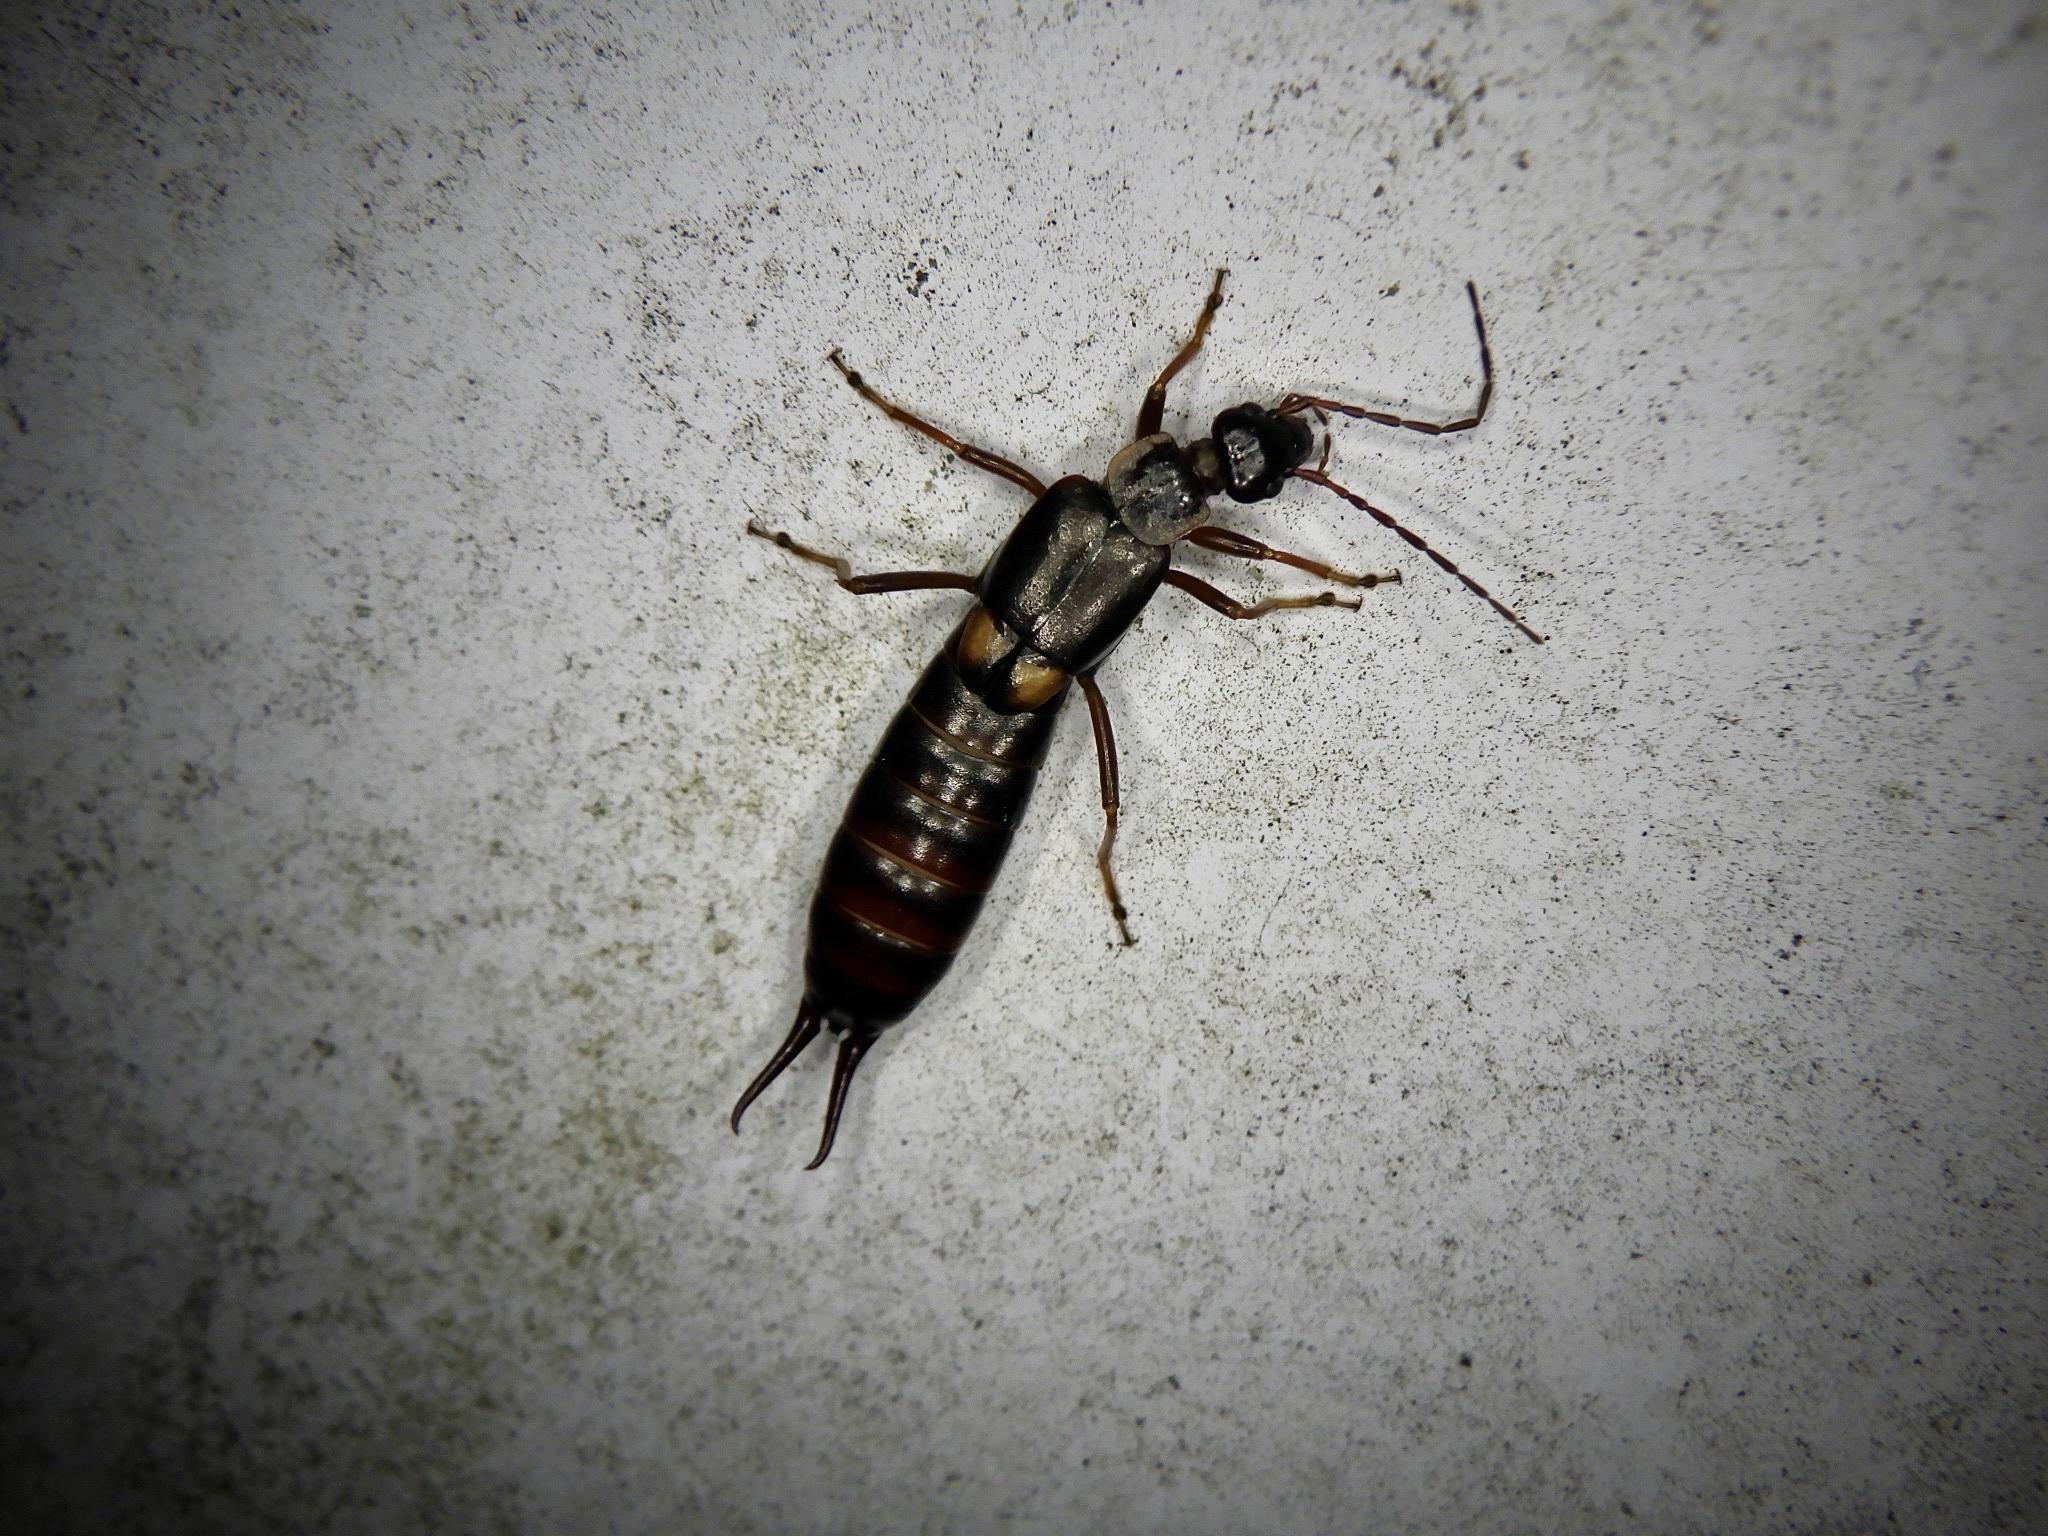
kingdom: Animalia
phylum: Arthropoda
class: Insecta
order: Dermaptera
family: Forficulidae
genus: Anechura
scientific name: Anechura harmandi
